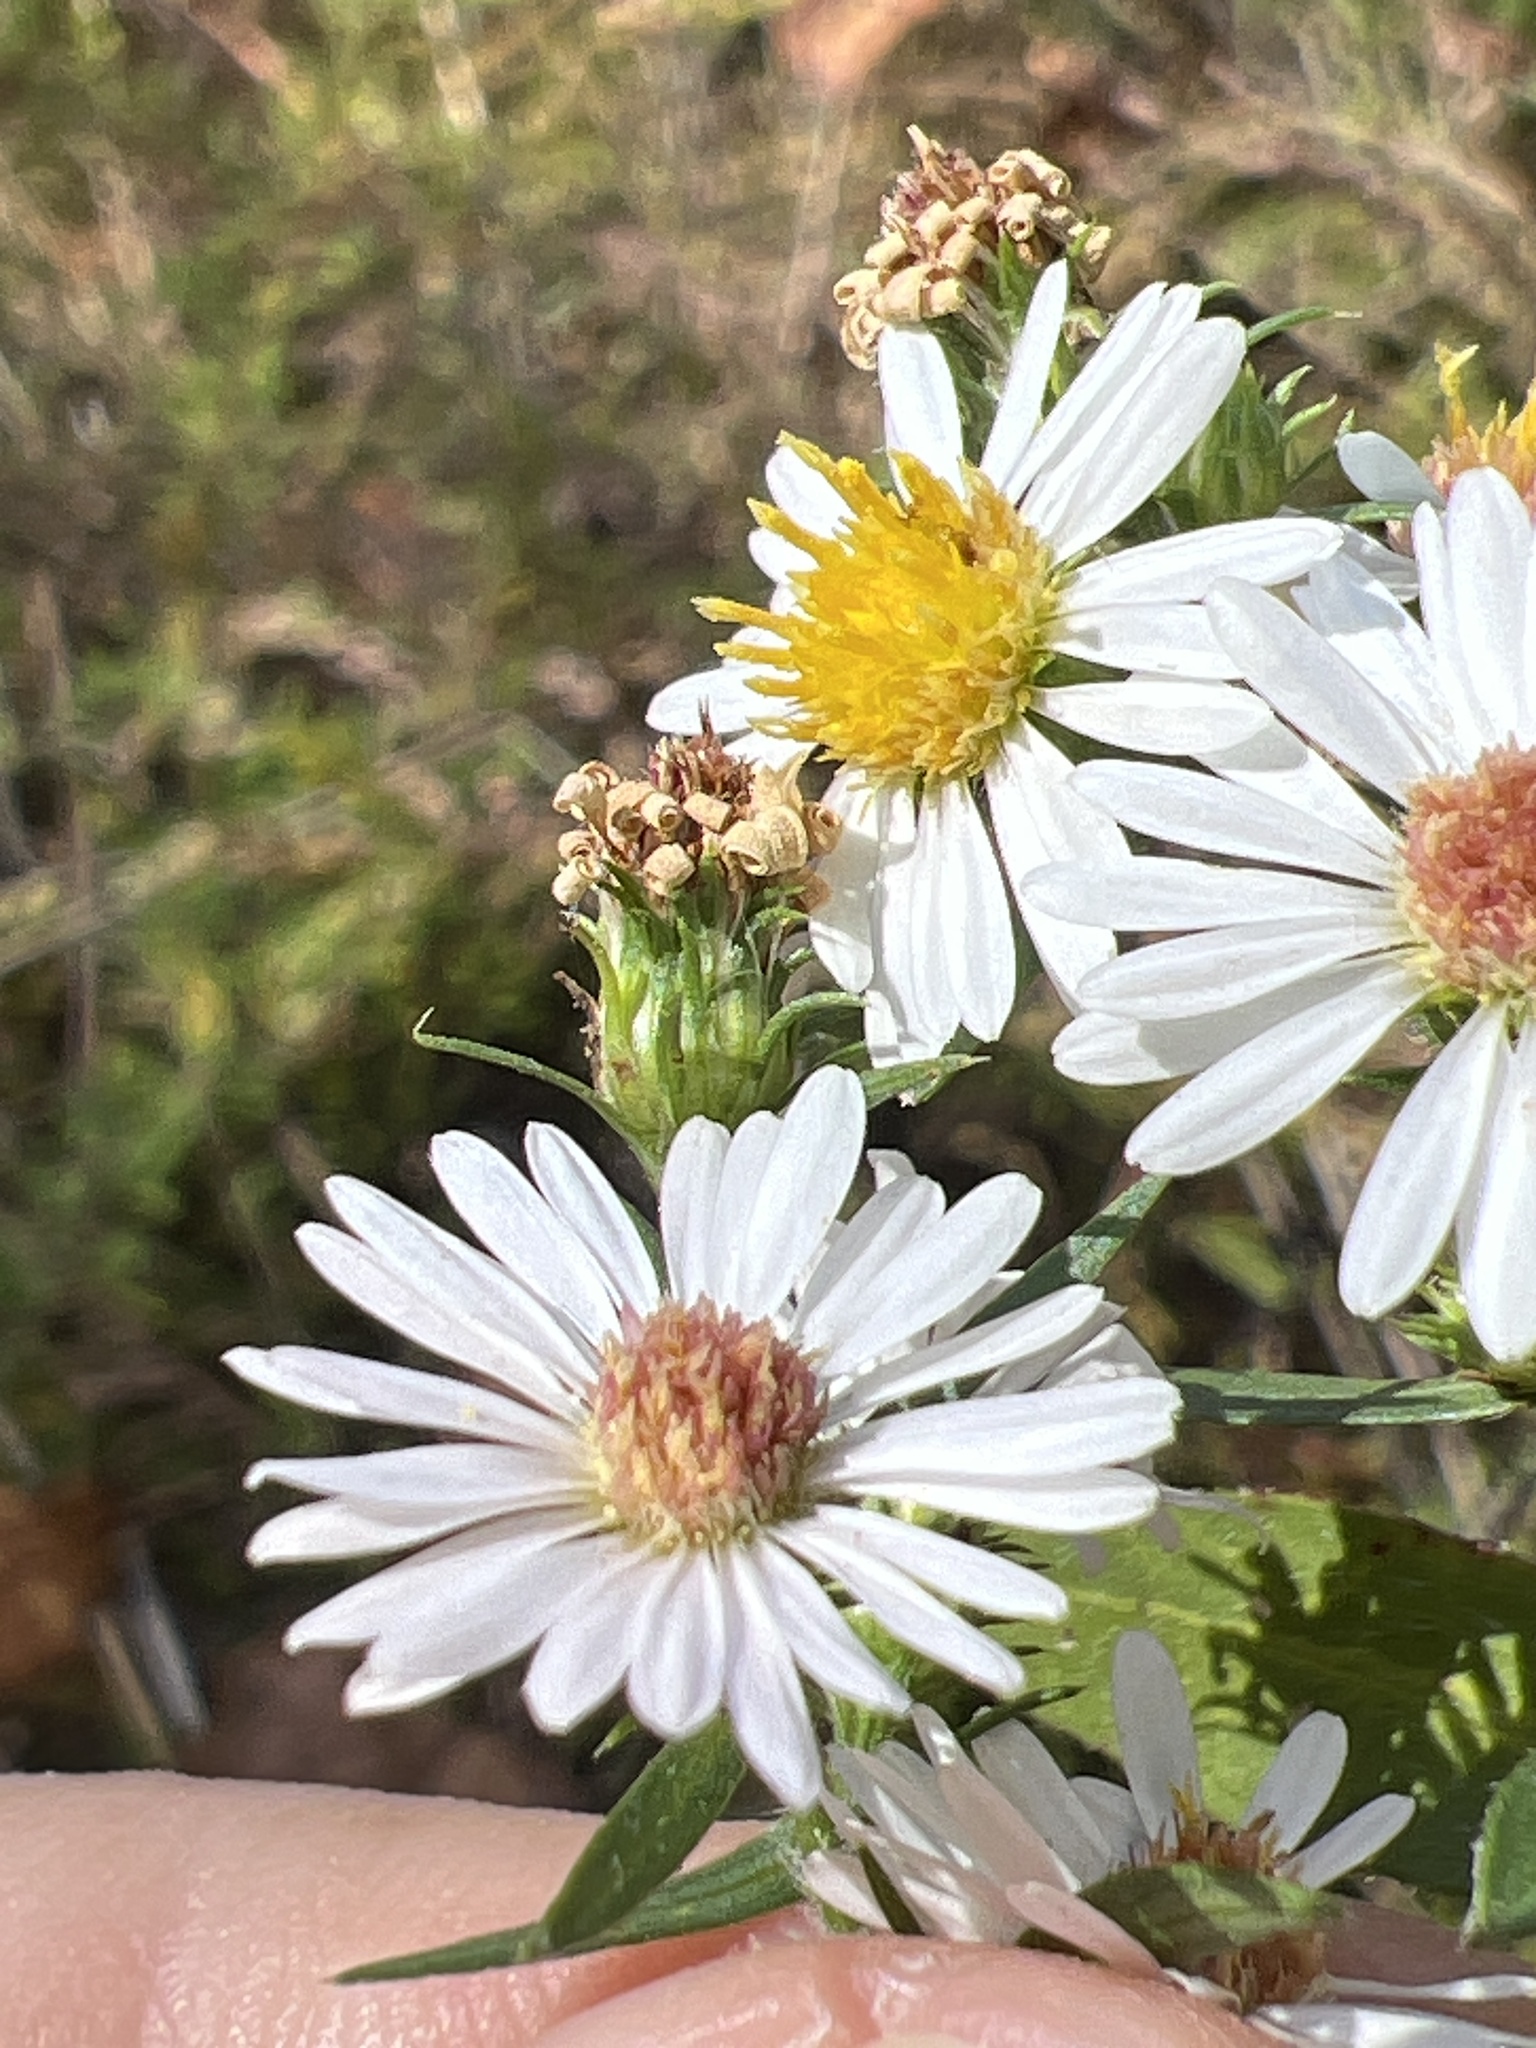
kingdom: Plantae
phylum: Tracheophyta
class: Magnoliopsida
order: Asterales
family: Asteraceae
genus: Symphyotrichum
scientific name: Symphyotrichum pilosum
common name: Awl aster
